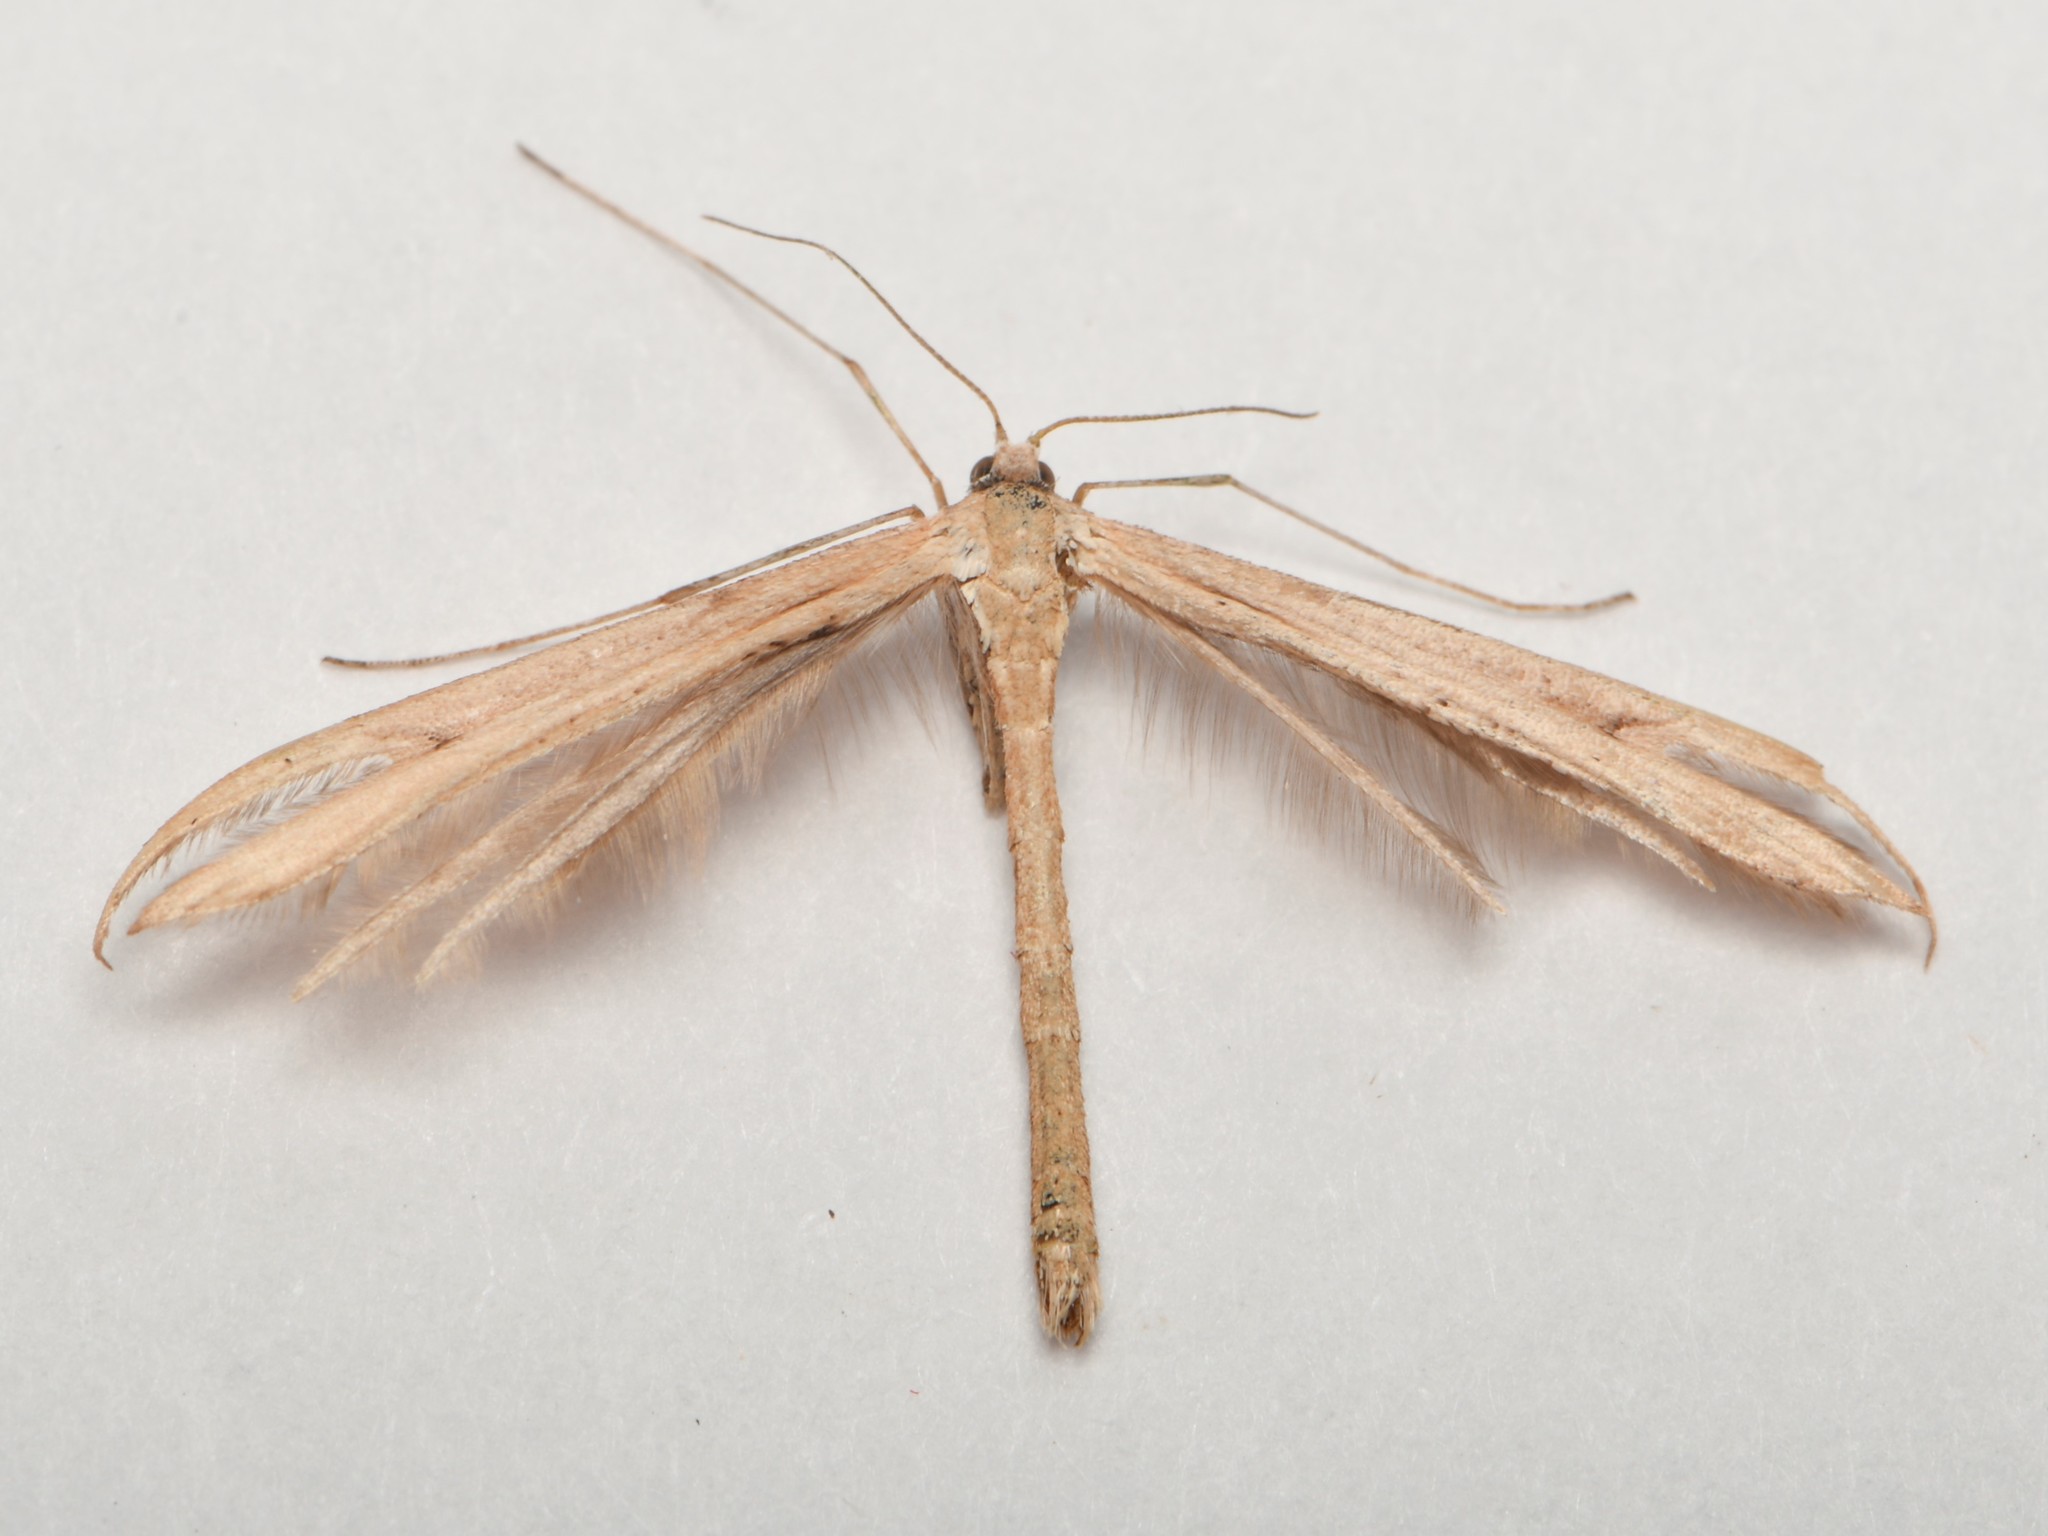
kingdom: Animalia
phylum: Arthropoda
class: Insecta
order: Lepidoptera
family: Pterophoridae
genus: Emmelina
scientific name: Emmelina monodactyla
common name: Common plume
